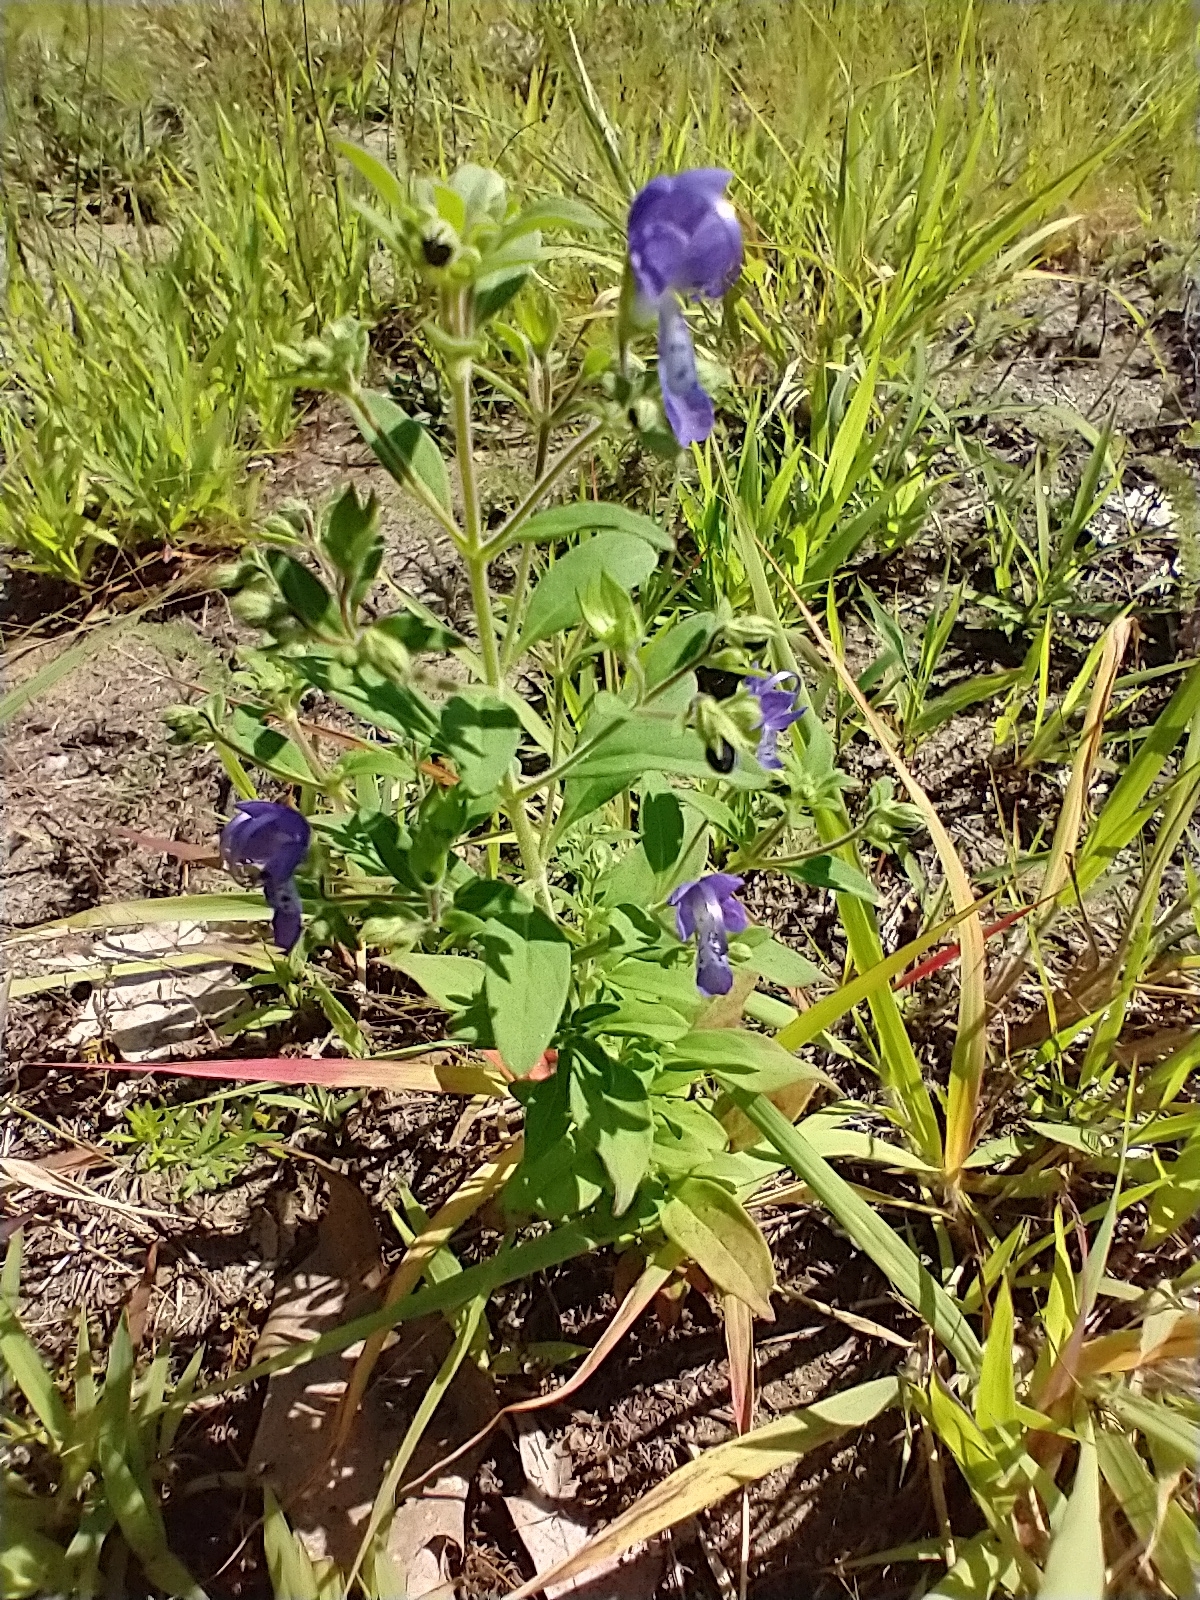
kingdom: Plantae
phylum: Tracheophyta
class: Magnoliopsida
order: Lamiales
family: Lamiaceae
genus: Trichostema
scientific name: Trichostema dichotomum
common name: Bastard pennyroyal
